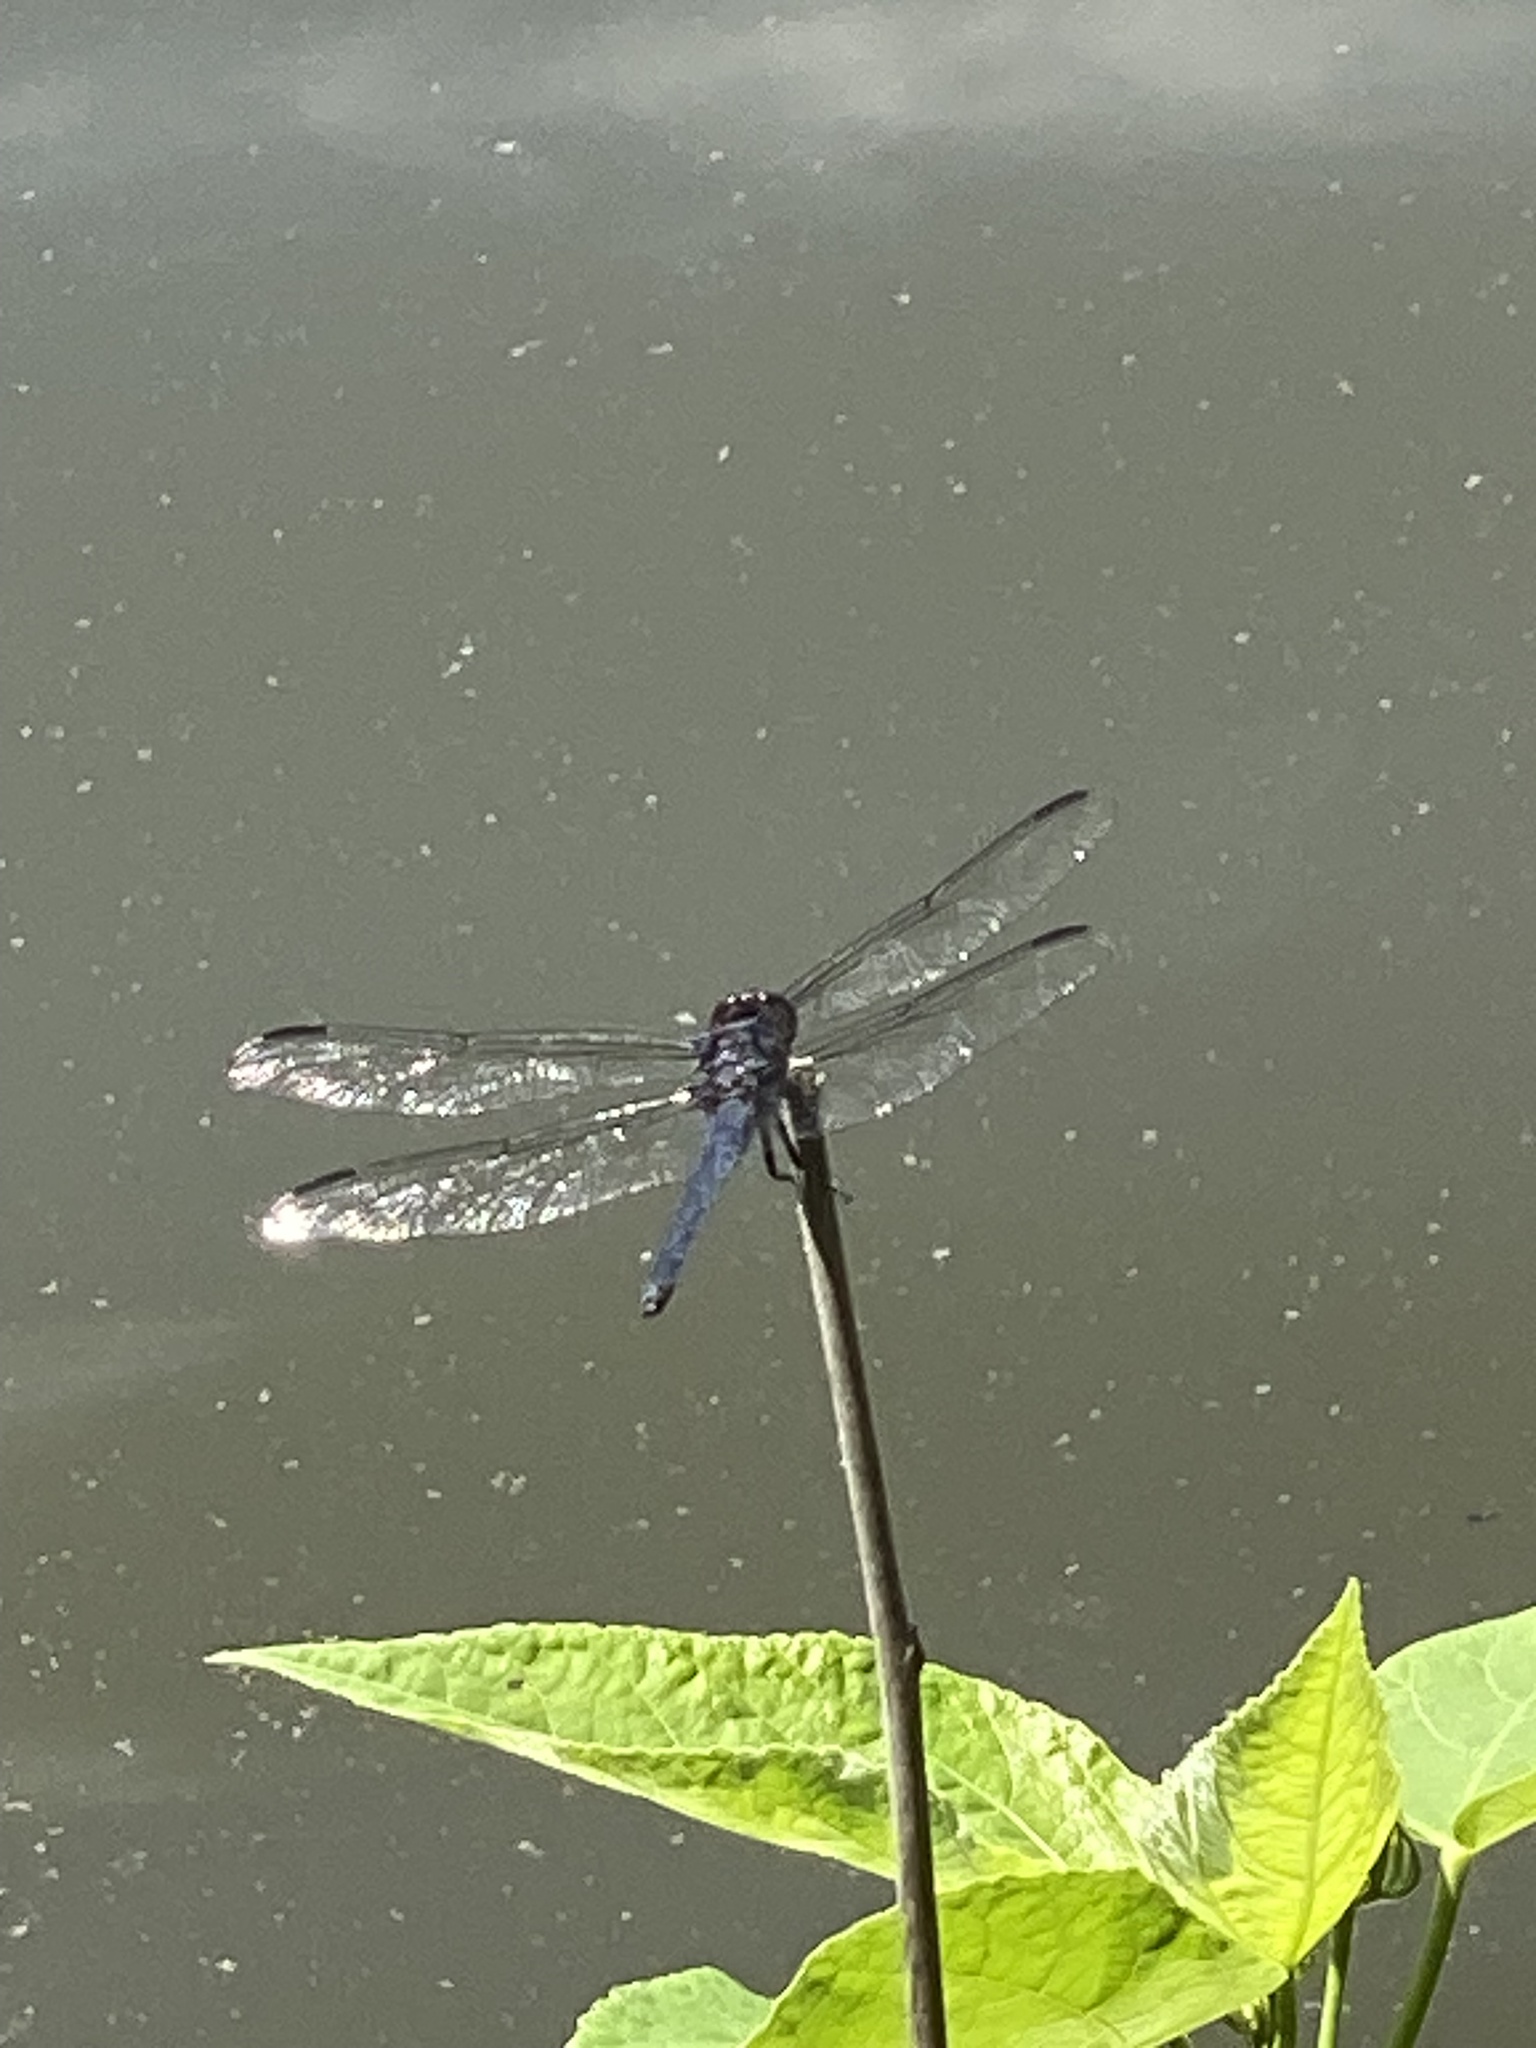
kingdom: Animalia
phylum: Arthropoda
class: Insecta
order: Odonata
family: Libellulidae
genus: Libellula
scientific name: Libellula incesta
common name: Slaty skimmer
